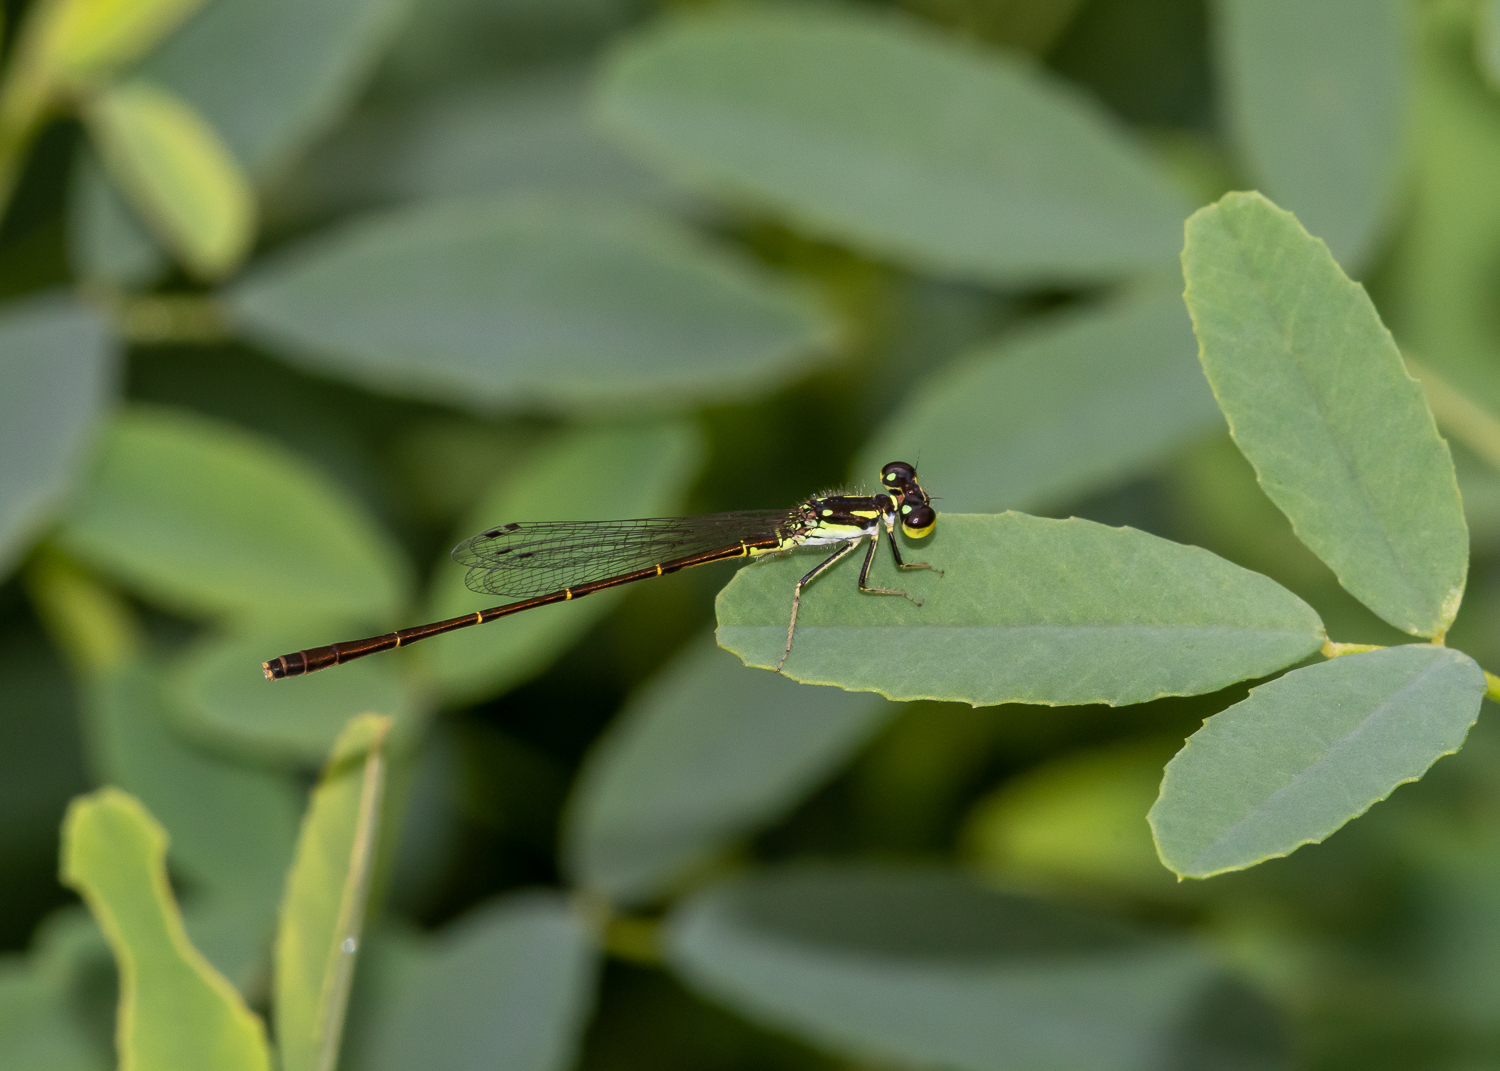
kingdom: Animalia
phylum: Arthropoda
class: Insecta
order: Odonata
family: Coenagrionidae
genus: Ischnura
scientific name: Ischnura posita
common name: Fragile forktail
